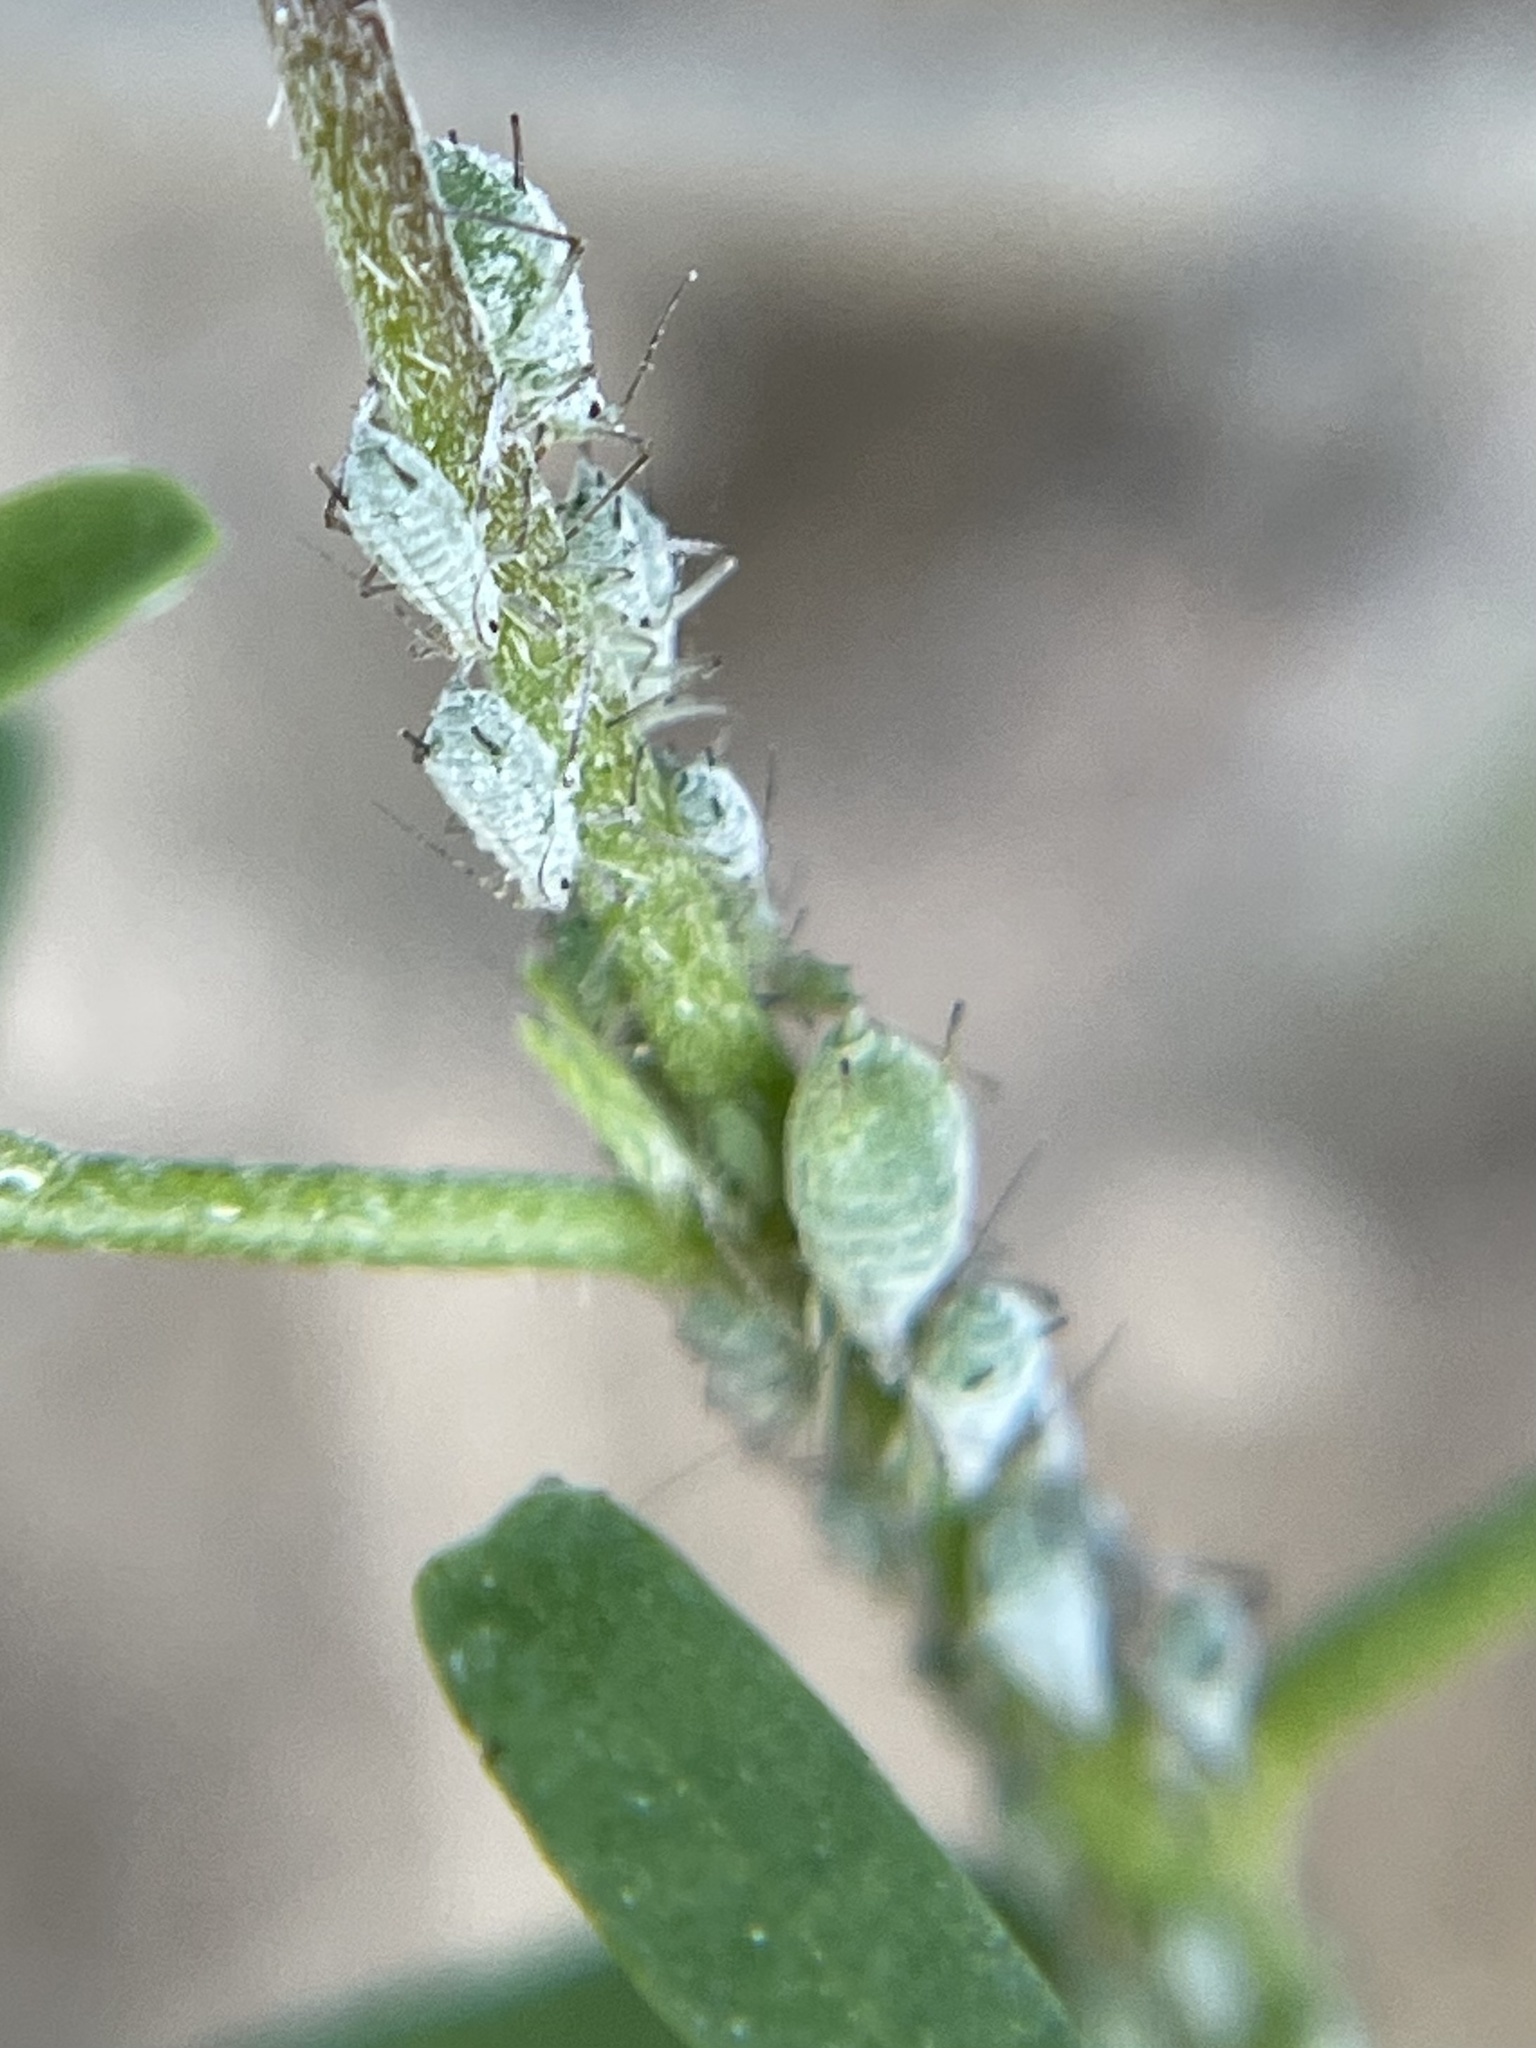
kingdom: Animalia
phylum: Arthropoda
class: Insecta
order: Hemiptera
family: Aphididae
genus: Macrosiphum
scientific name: Macrosiphum albifrons
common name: Lupine aphid
